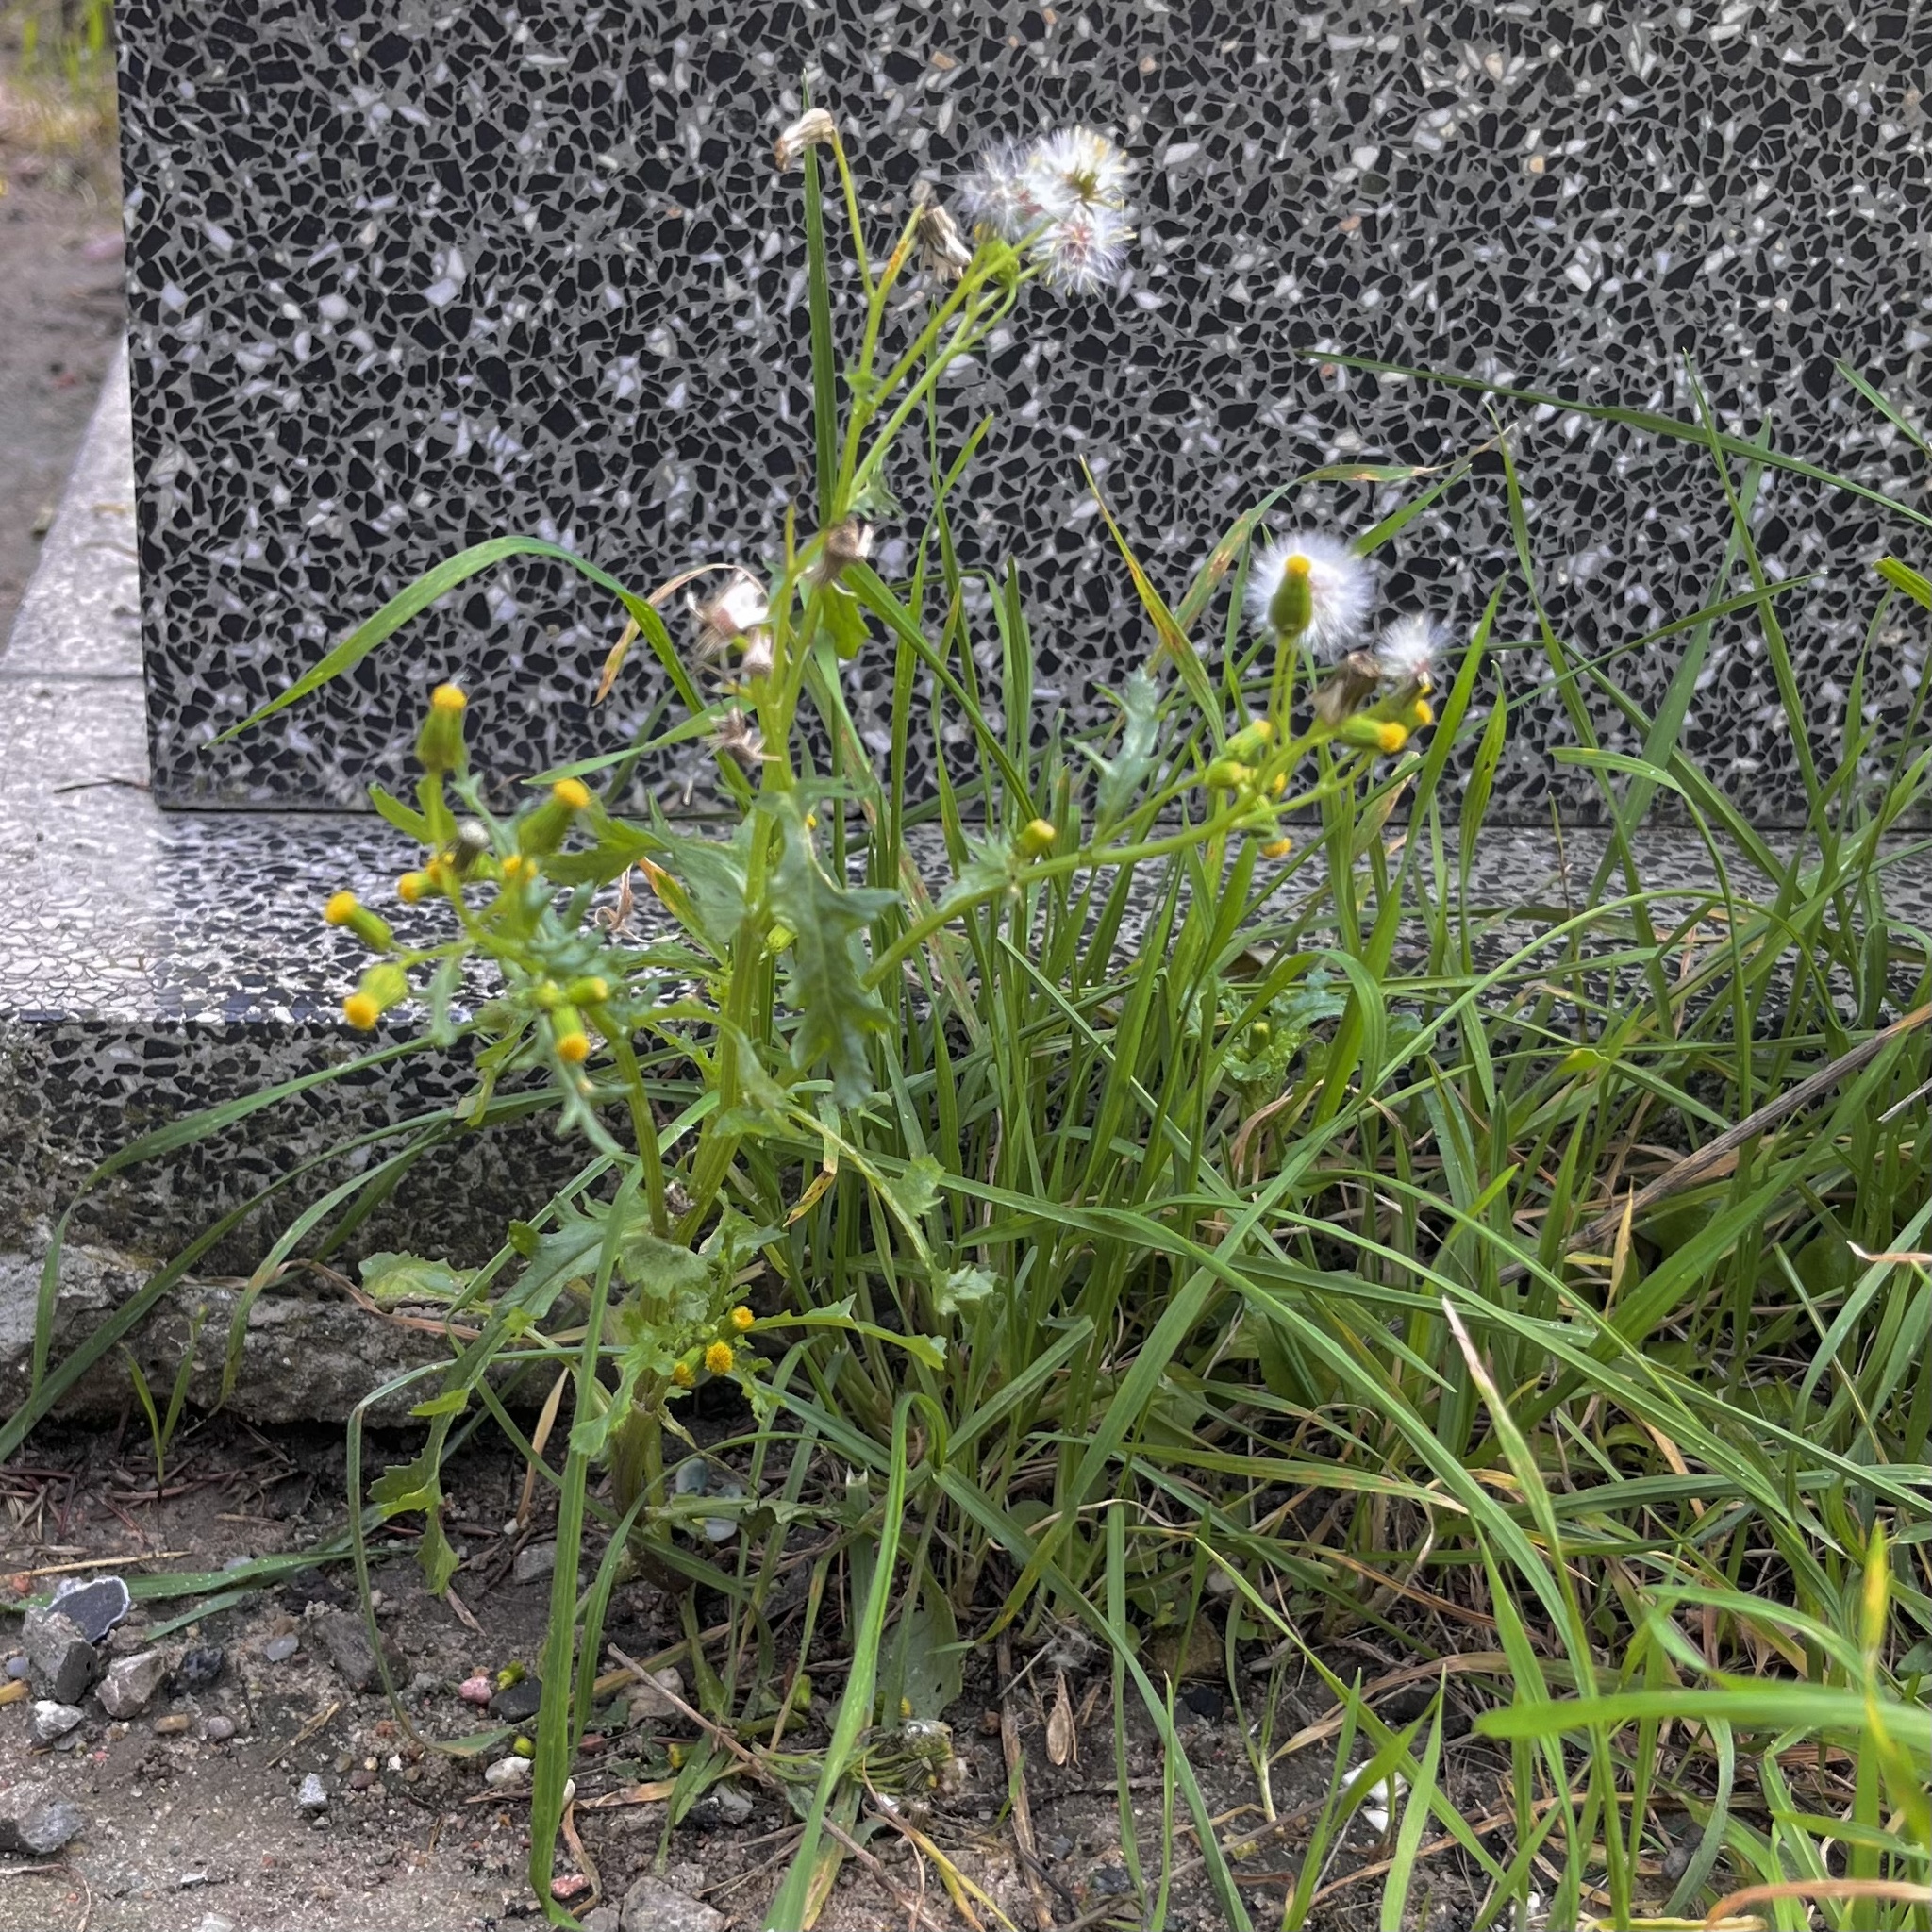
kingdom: Plantae
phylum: Tracheophyta
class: Magnoliopsida
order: Asterales
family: Asteraceae
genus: Senecio
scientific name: Senecio vulgaris
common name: Old-man-in-the-spring
